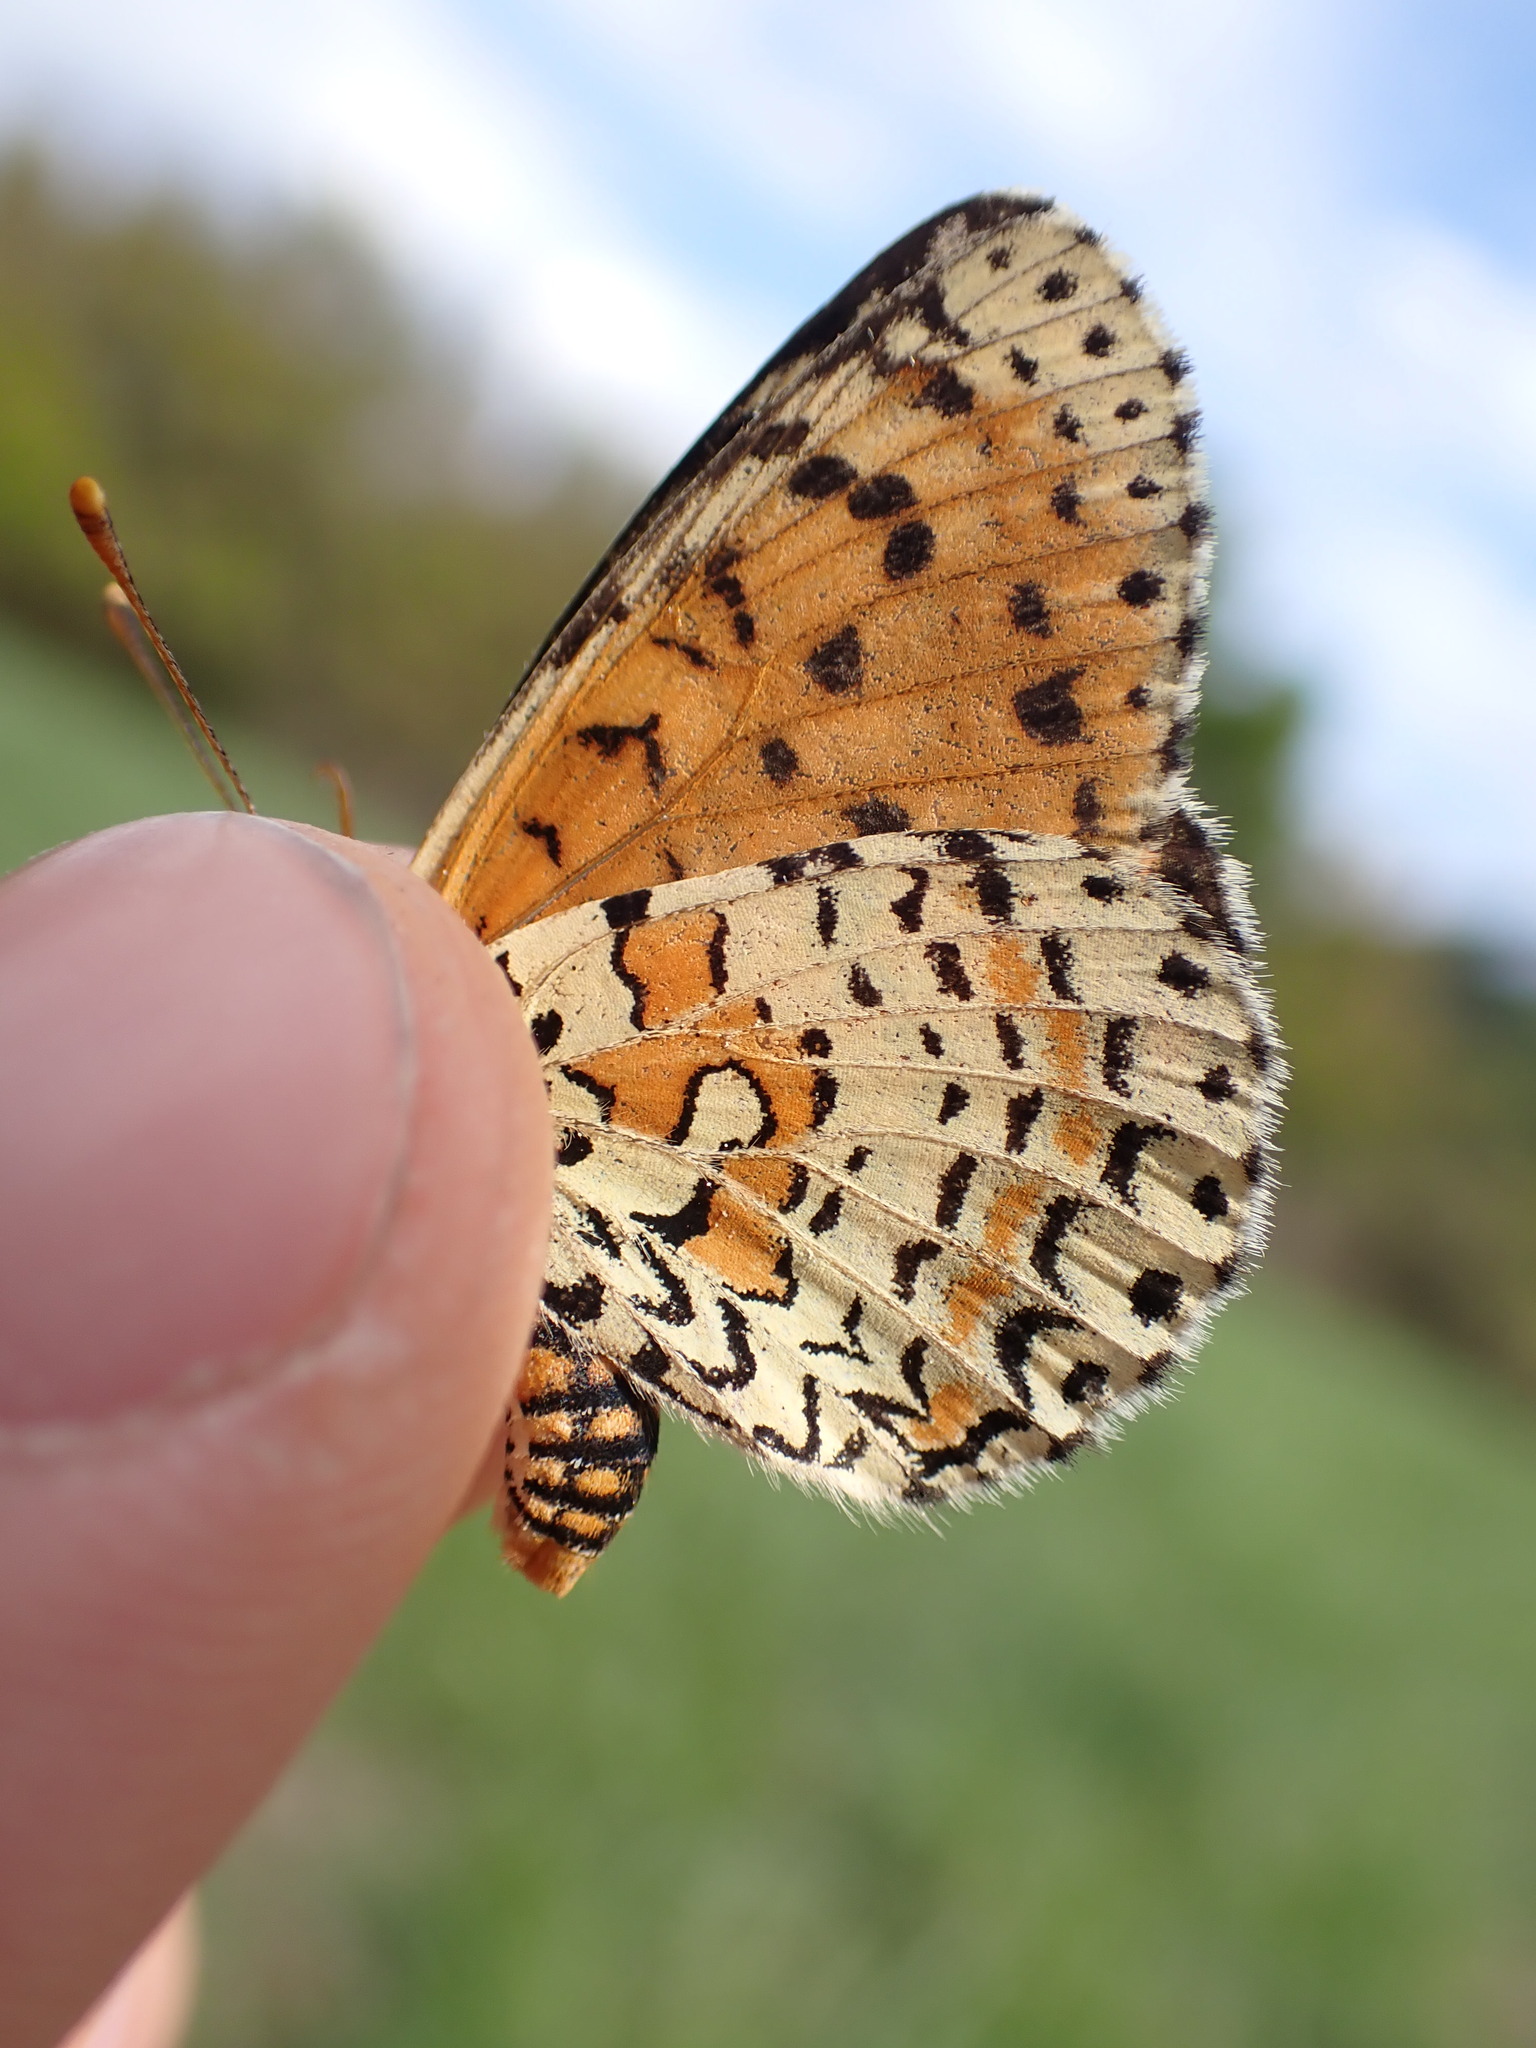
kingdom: Animalia
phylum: Arthropoda
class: Insecta
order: Lepidoptera
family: Nymphalidae
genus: Melitaea
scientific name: Melitaea didyma
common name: Spotted fritillary
